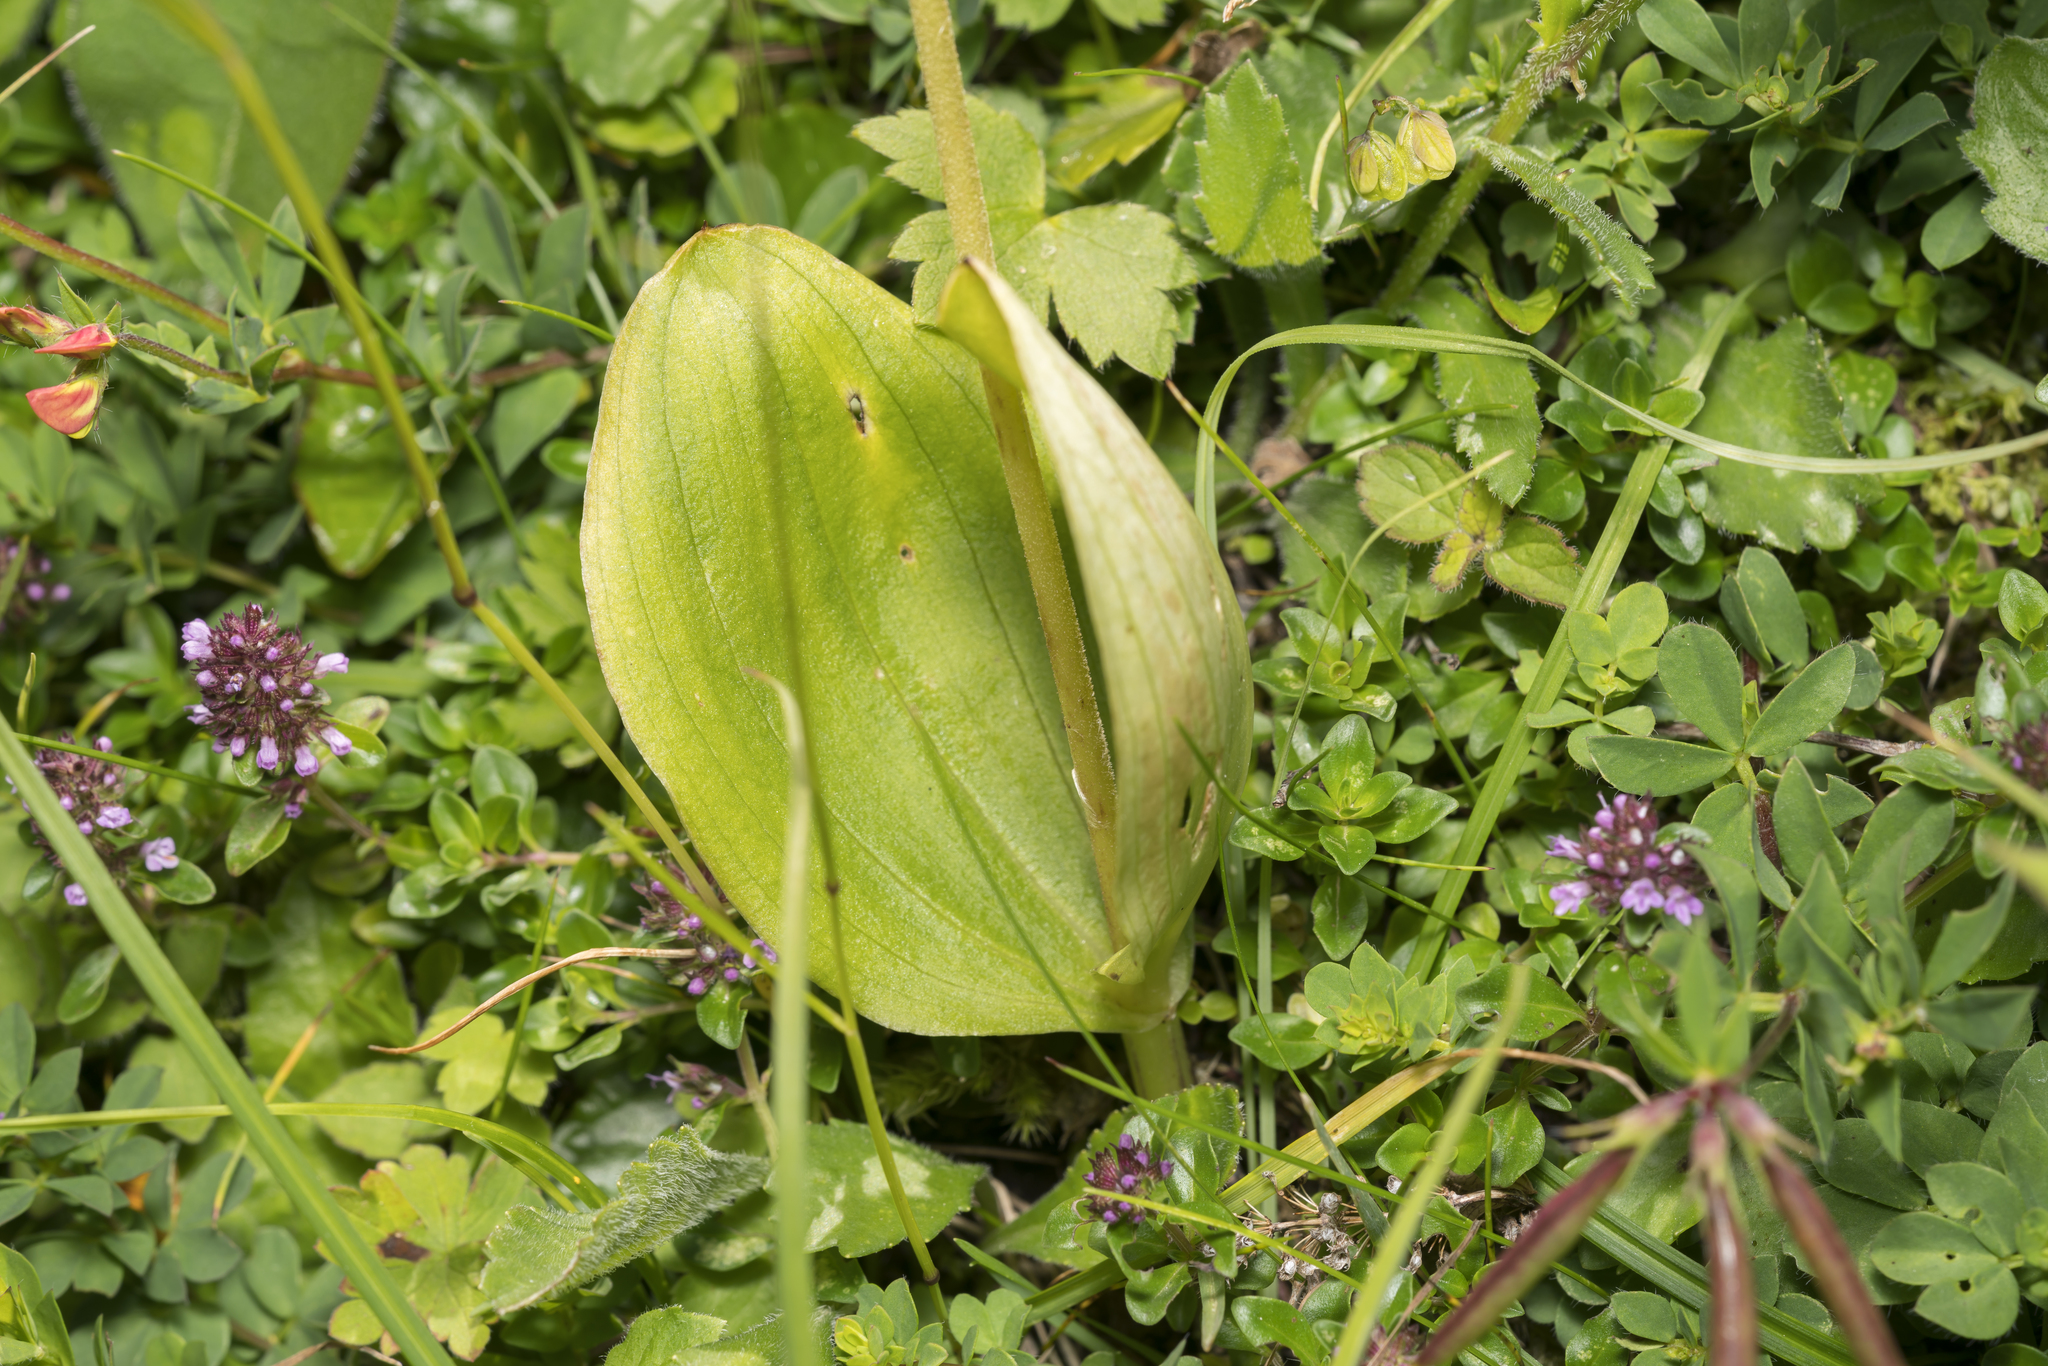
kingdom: Plantae
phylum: Tracheophyta
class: Liliopsida
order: Asparagales
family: Orchidaceae
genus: Neottia
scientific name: Neottia ovata
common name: Common twayblade
